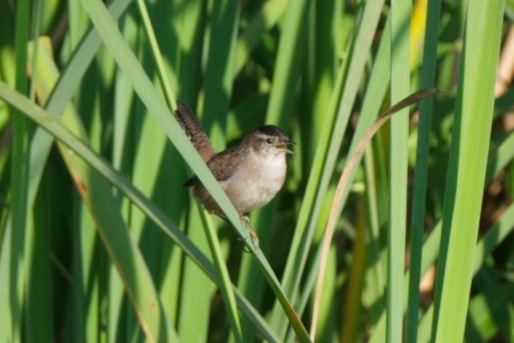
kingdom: Animalia
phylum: Chordata
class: Aves
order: Passeriformes
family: Troglodytidae
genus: Cistothorus
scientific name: Cistothorus palustris
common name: Marsh wren
